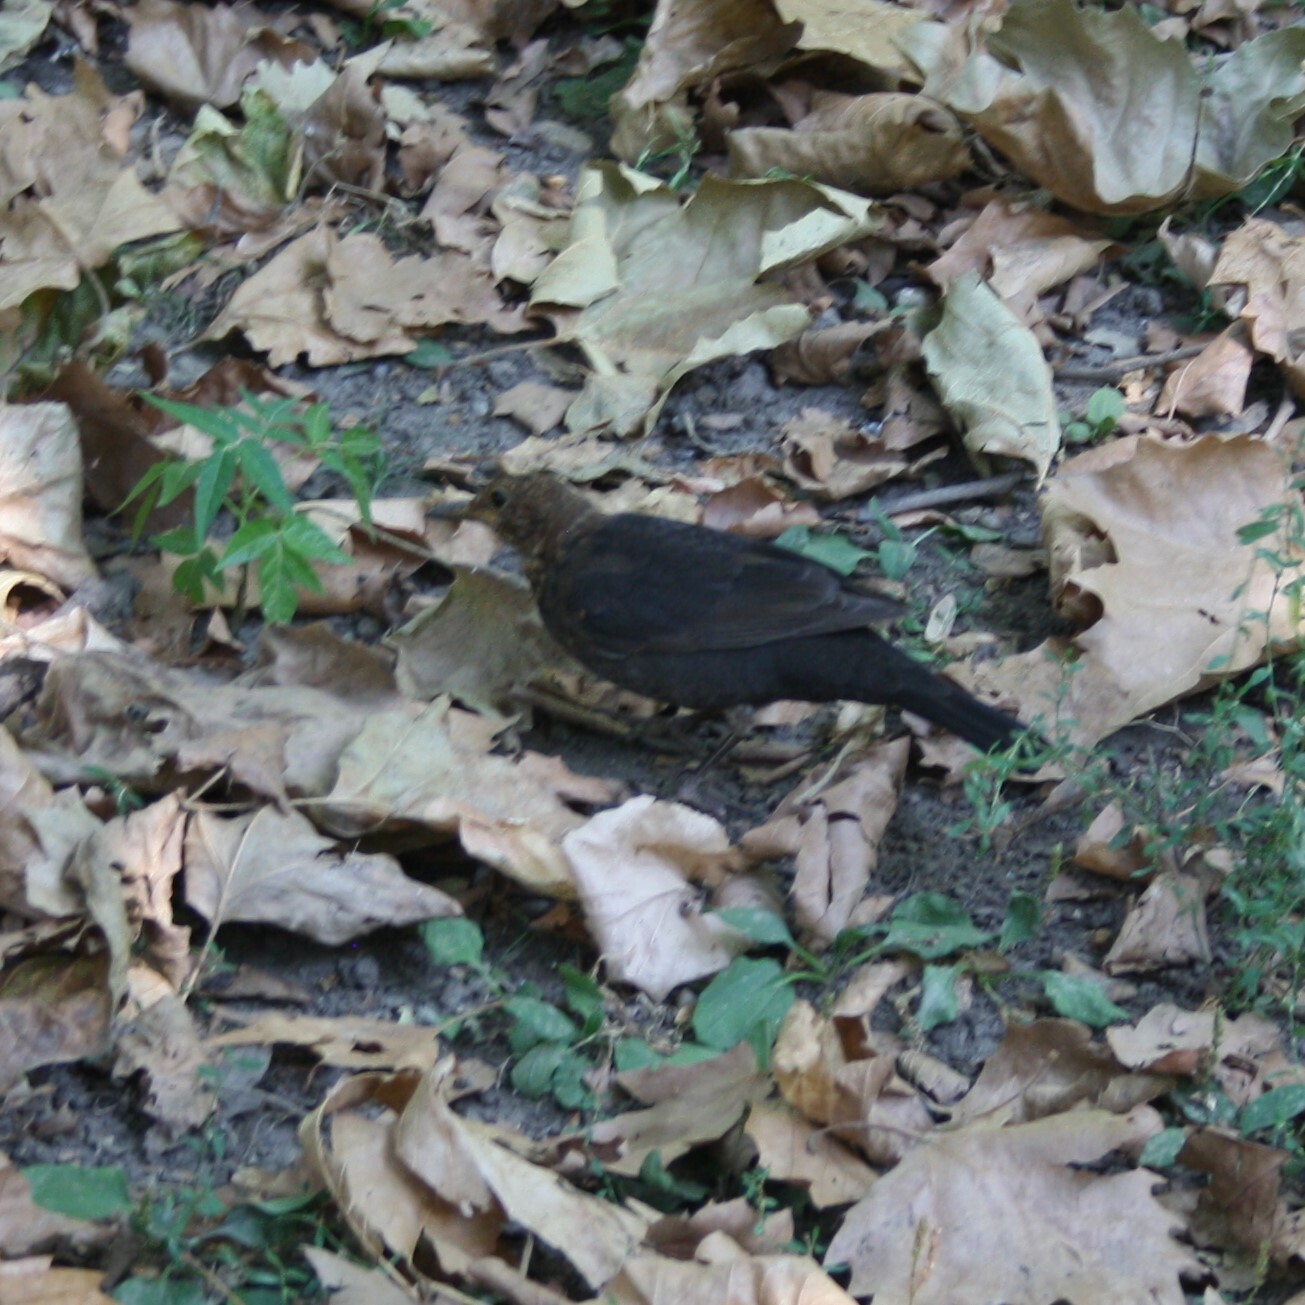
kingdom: Animalia
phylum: Chordata
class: Aves
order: Passeriformes
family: Turdidae
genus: Turdus
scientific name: Turdus merula
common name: Common blackbird
